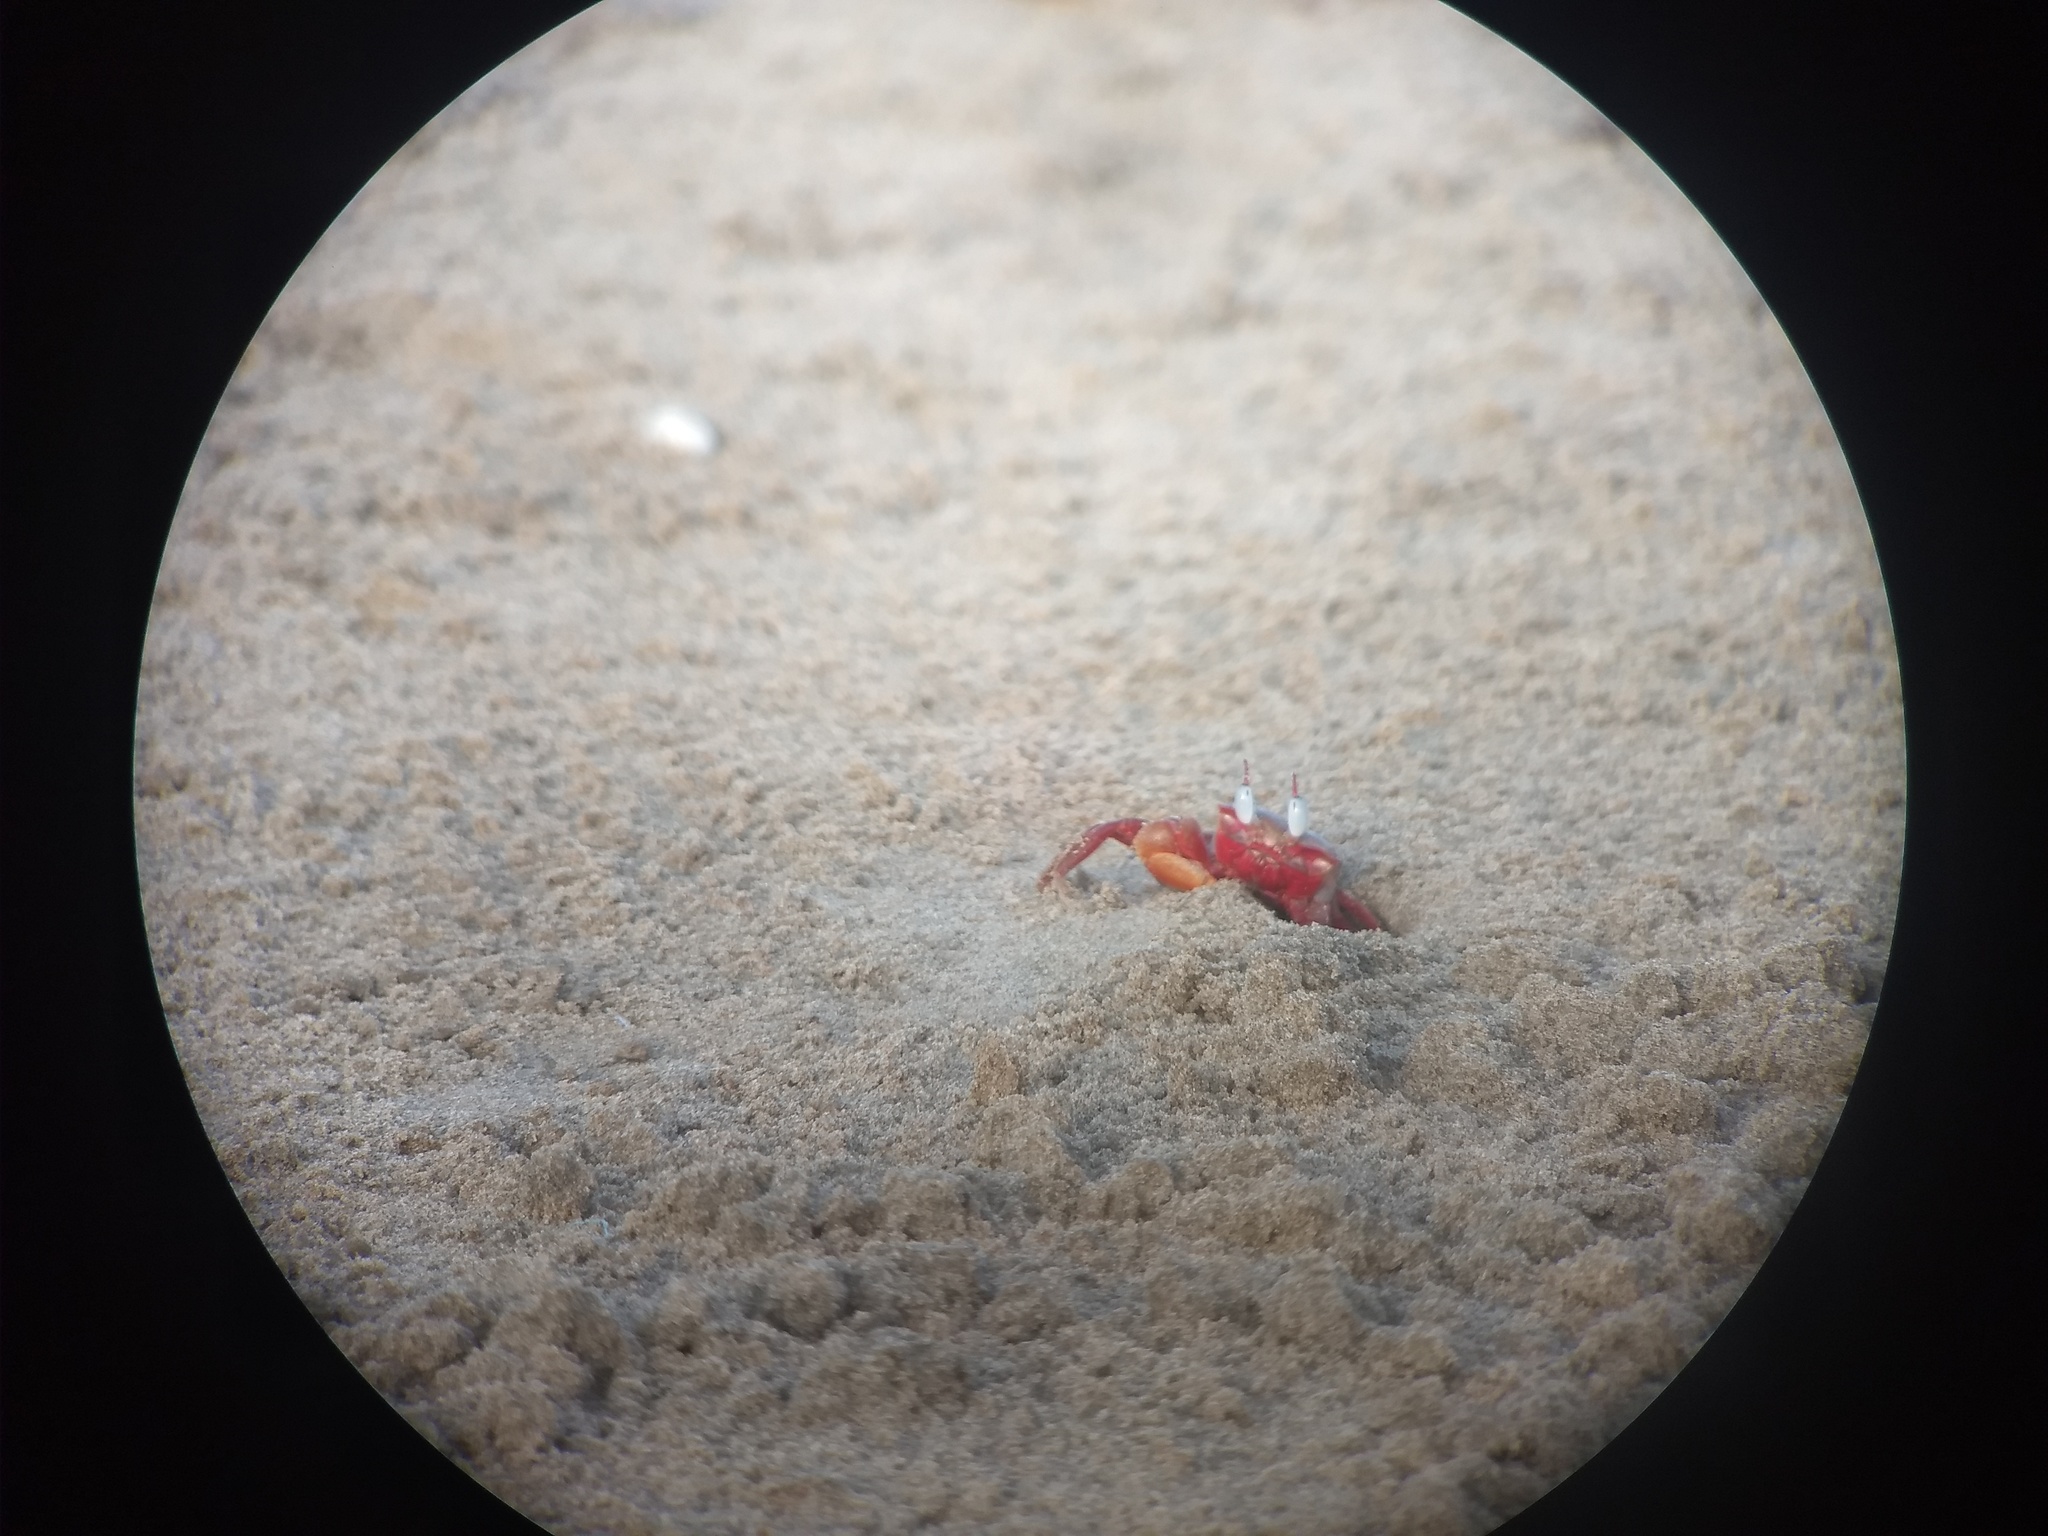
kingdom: Animalia
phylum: Arthropoda
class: Malacostraca
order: Decapoda
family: Ocypodidae
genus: Ocypode
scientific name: Ocypode macrocera
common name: Red ghost crab
